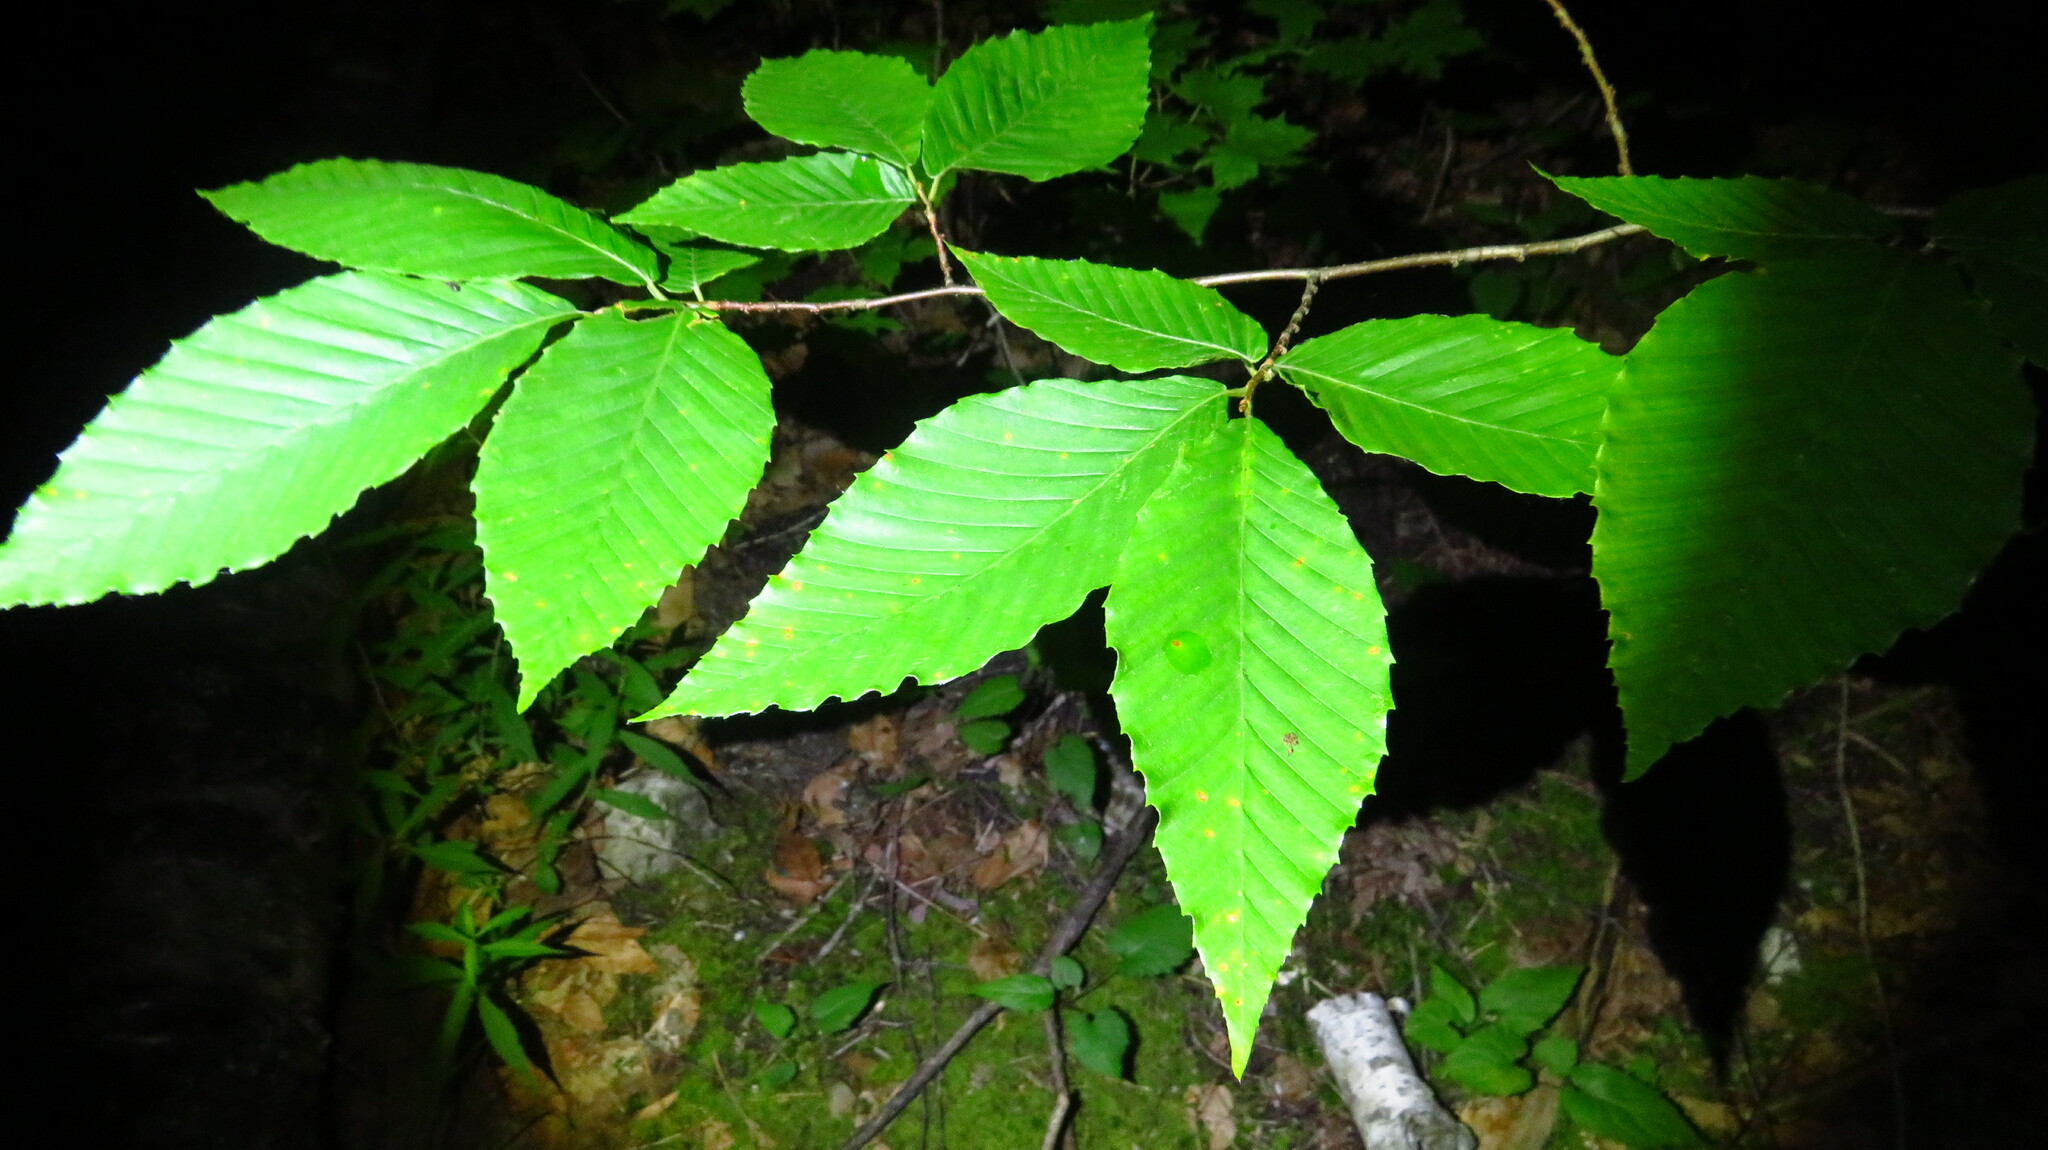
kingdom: Plantae
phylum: Tracheophyta
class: Magnoliopsida
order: Fagales
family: Fagaceae
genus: Fagus
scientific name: Fagus grandifolia
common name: American beech
